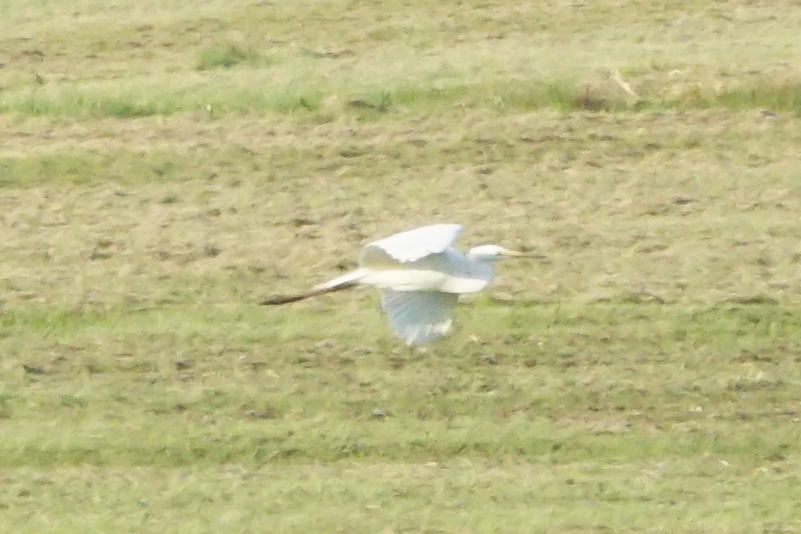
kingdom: Animalia
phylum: Chordata
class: Aves
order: Pelecaniformes
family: Ardeidae
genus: Ardea
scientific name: Ardea alba
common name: Great egret
